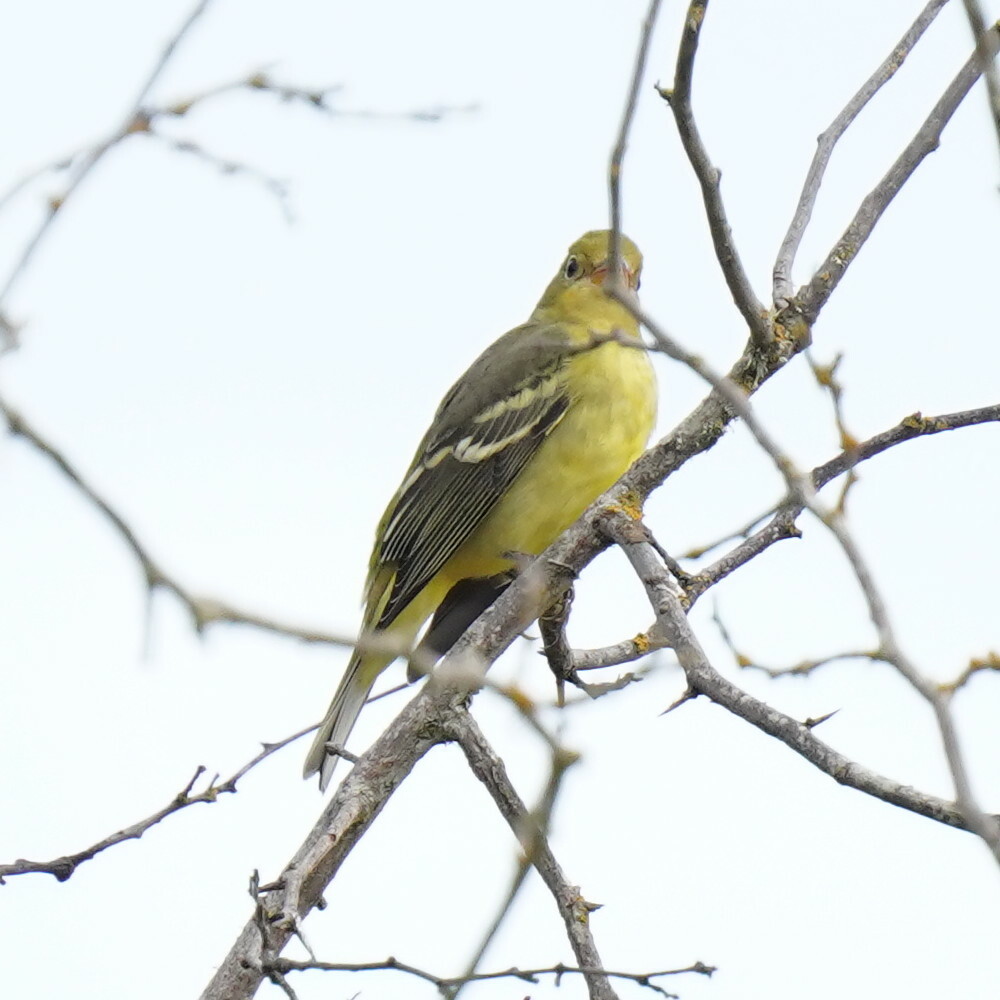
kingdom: Animalia
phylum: Chordata
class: Aves
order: Passeriformes
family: Cardinalidae
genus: Piranga
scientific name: Piranga ludoviciana
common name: Western tanager
